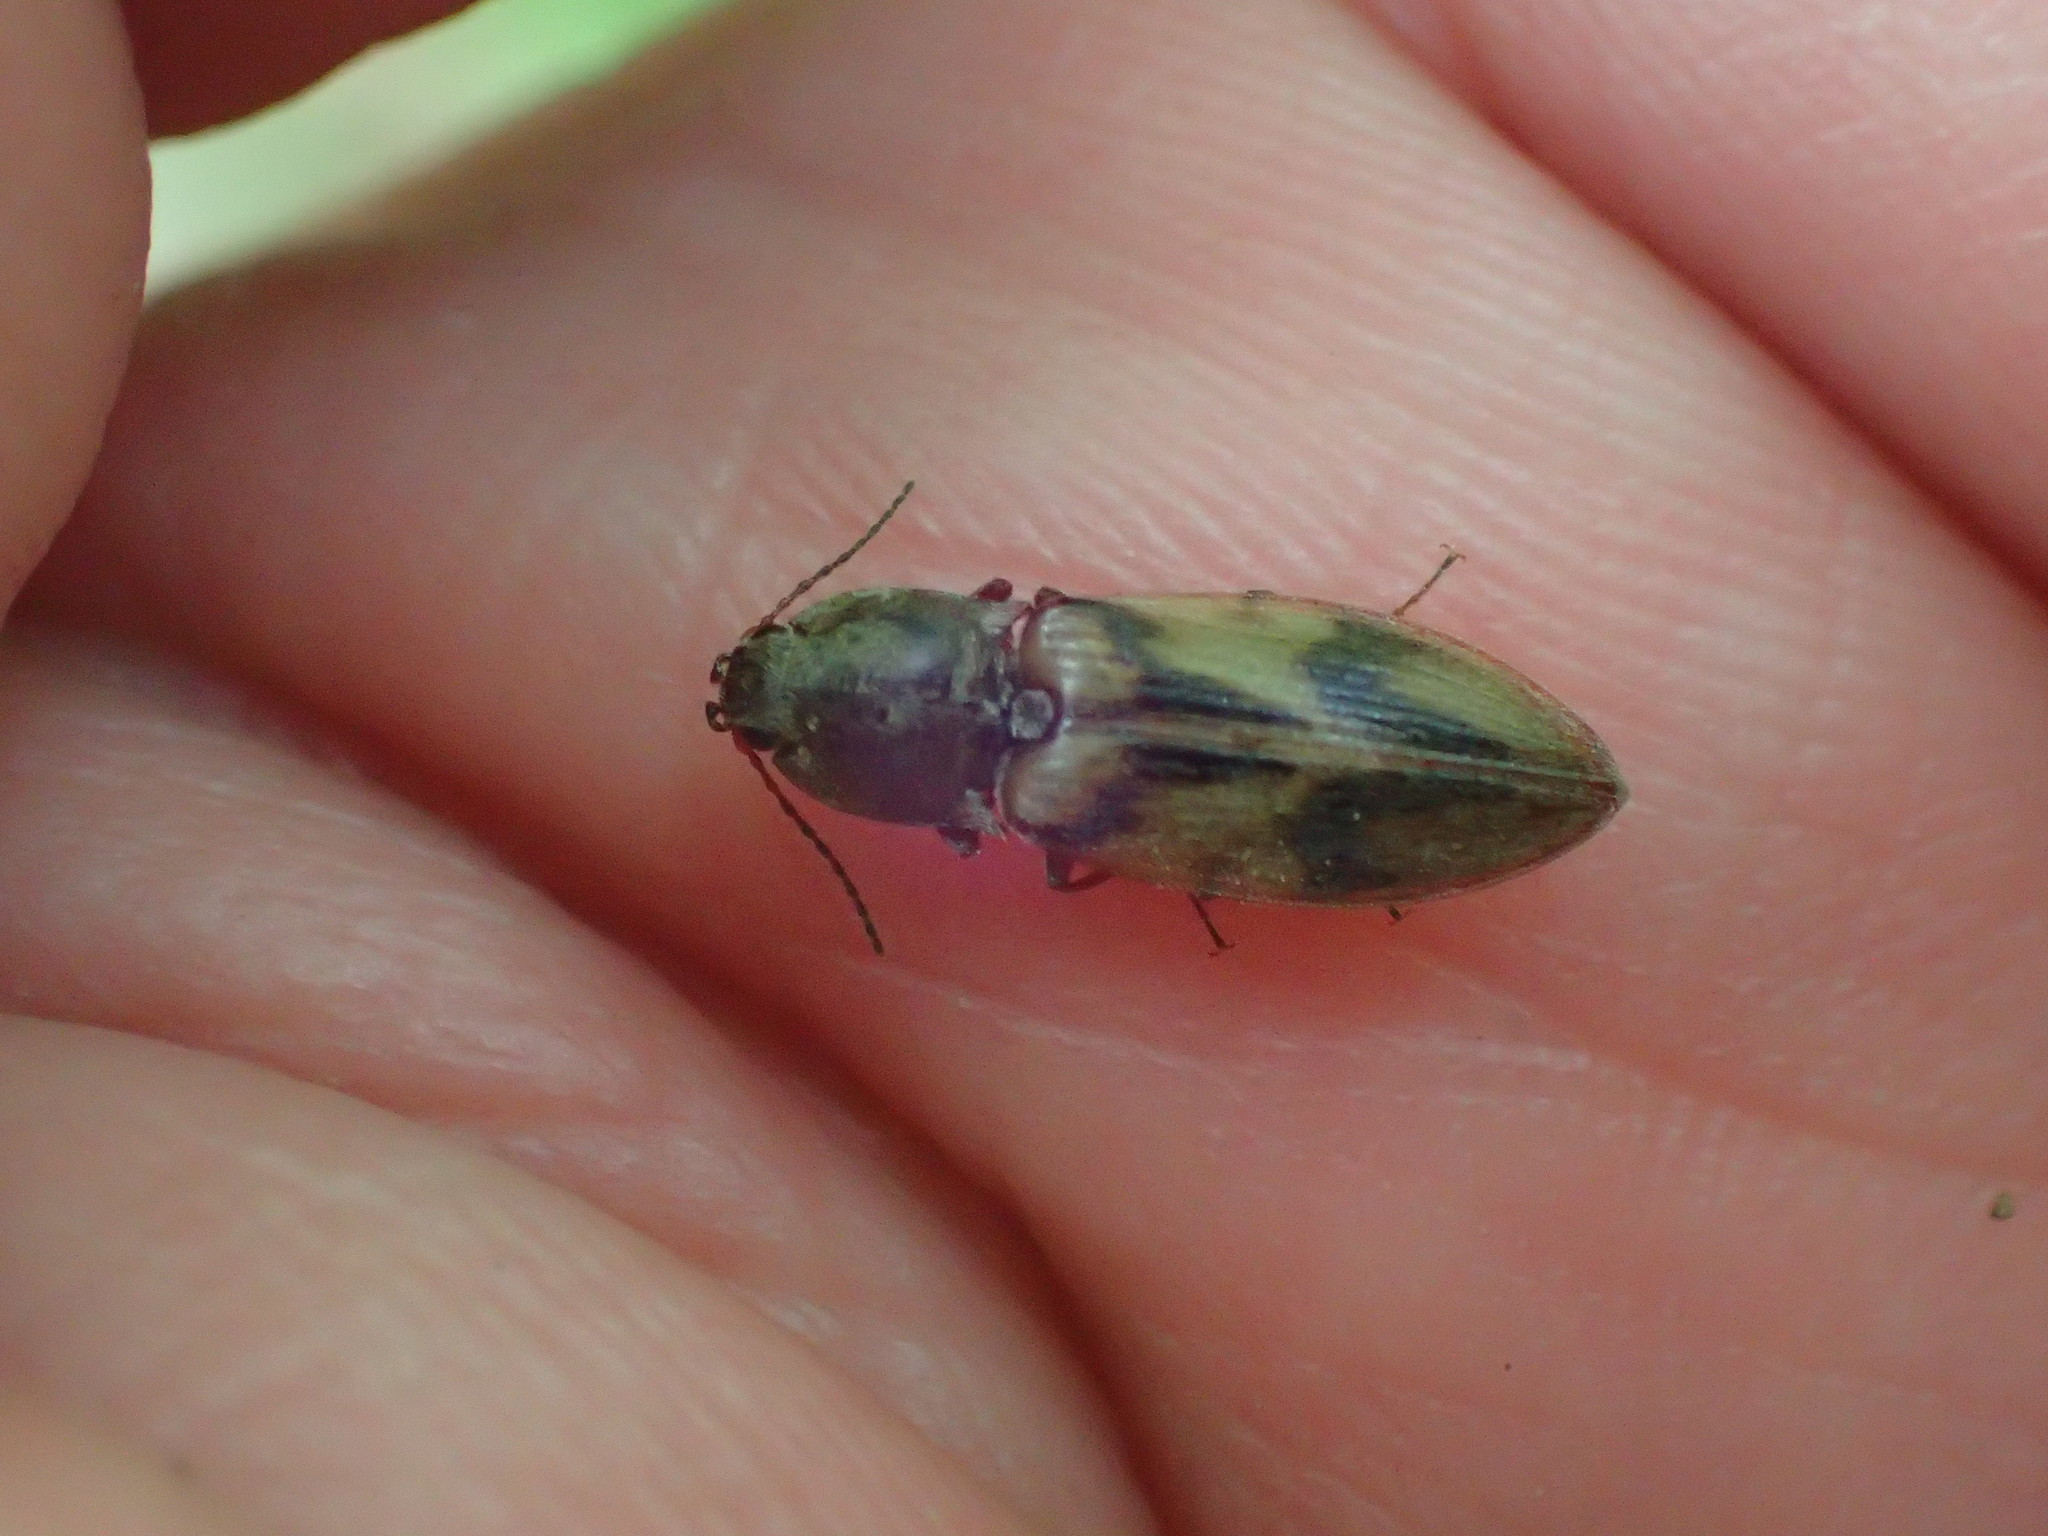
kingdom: Animalia
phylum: Arthropoda
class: Insecta
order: Coleoptera
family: Elateridae
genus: Stropenron
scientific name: Stropenron hieroglyphica
